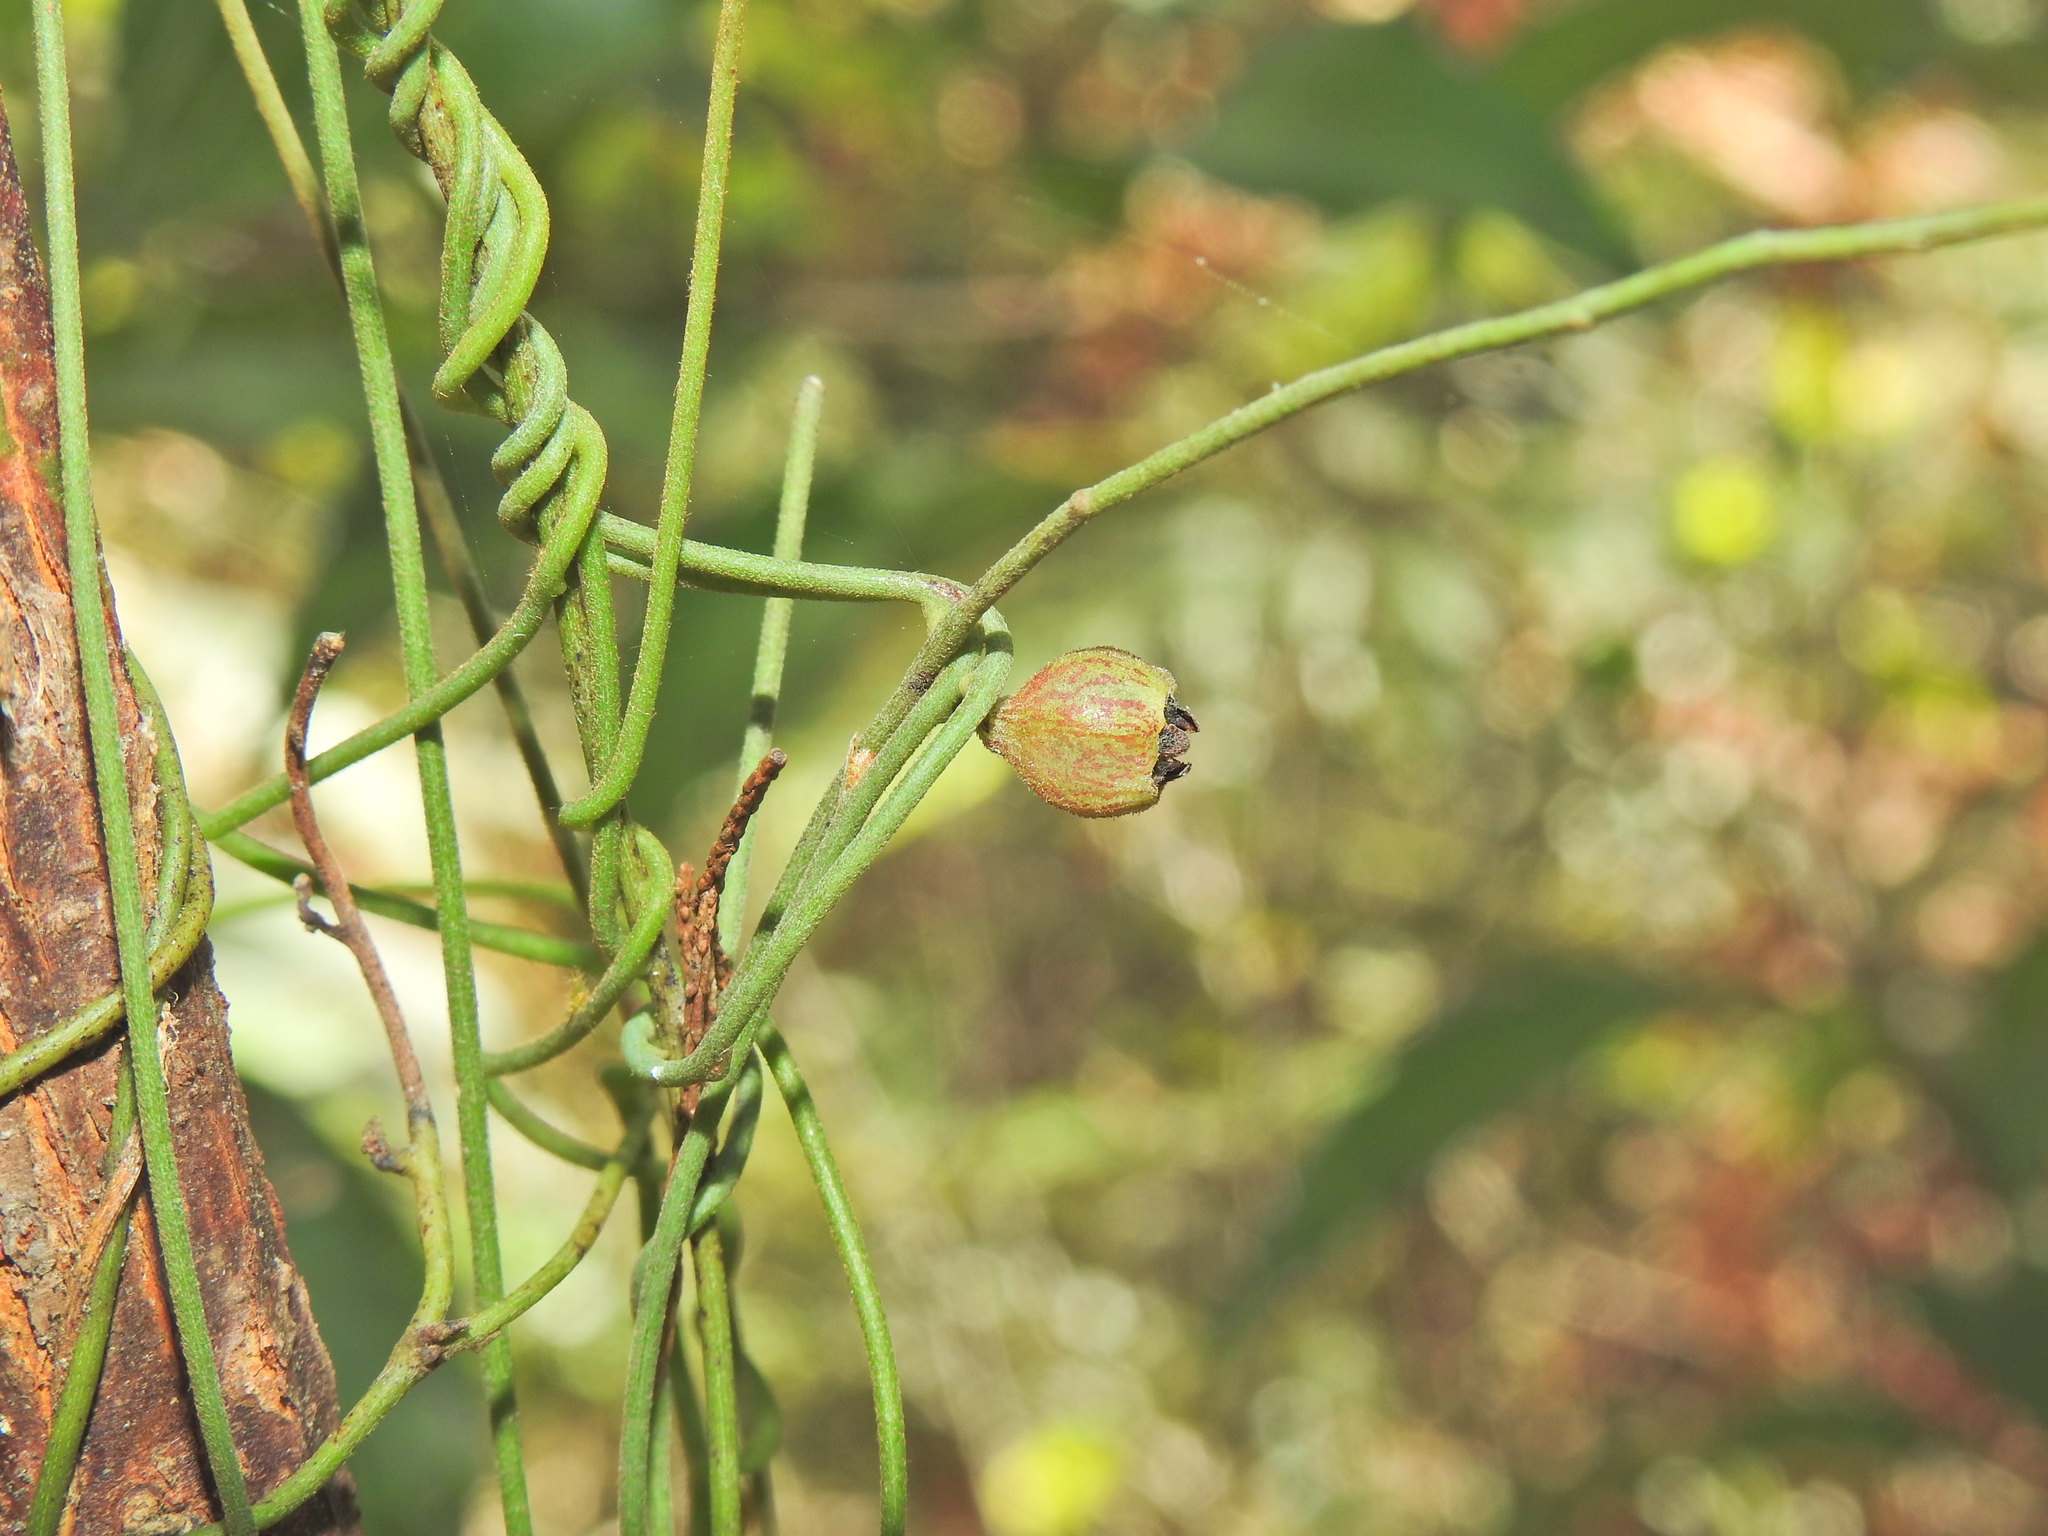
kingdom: Plantae
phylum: Tracheophyta
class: Magnoliopsida
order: Laurales
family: Lauraceae
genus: Cassytha
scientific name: Cassytha pubescens
